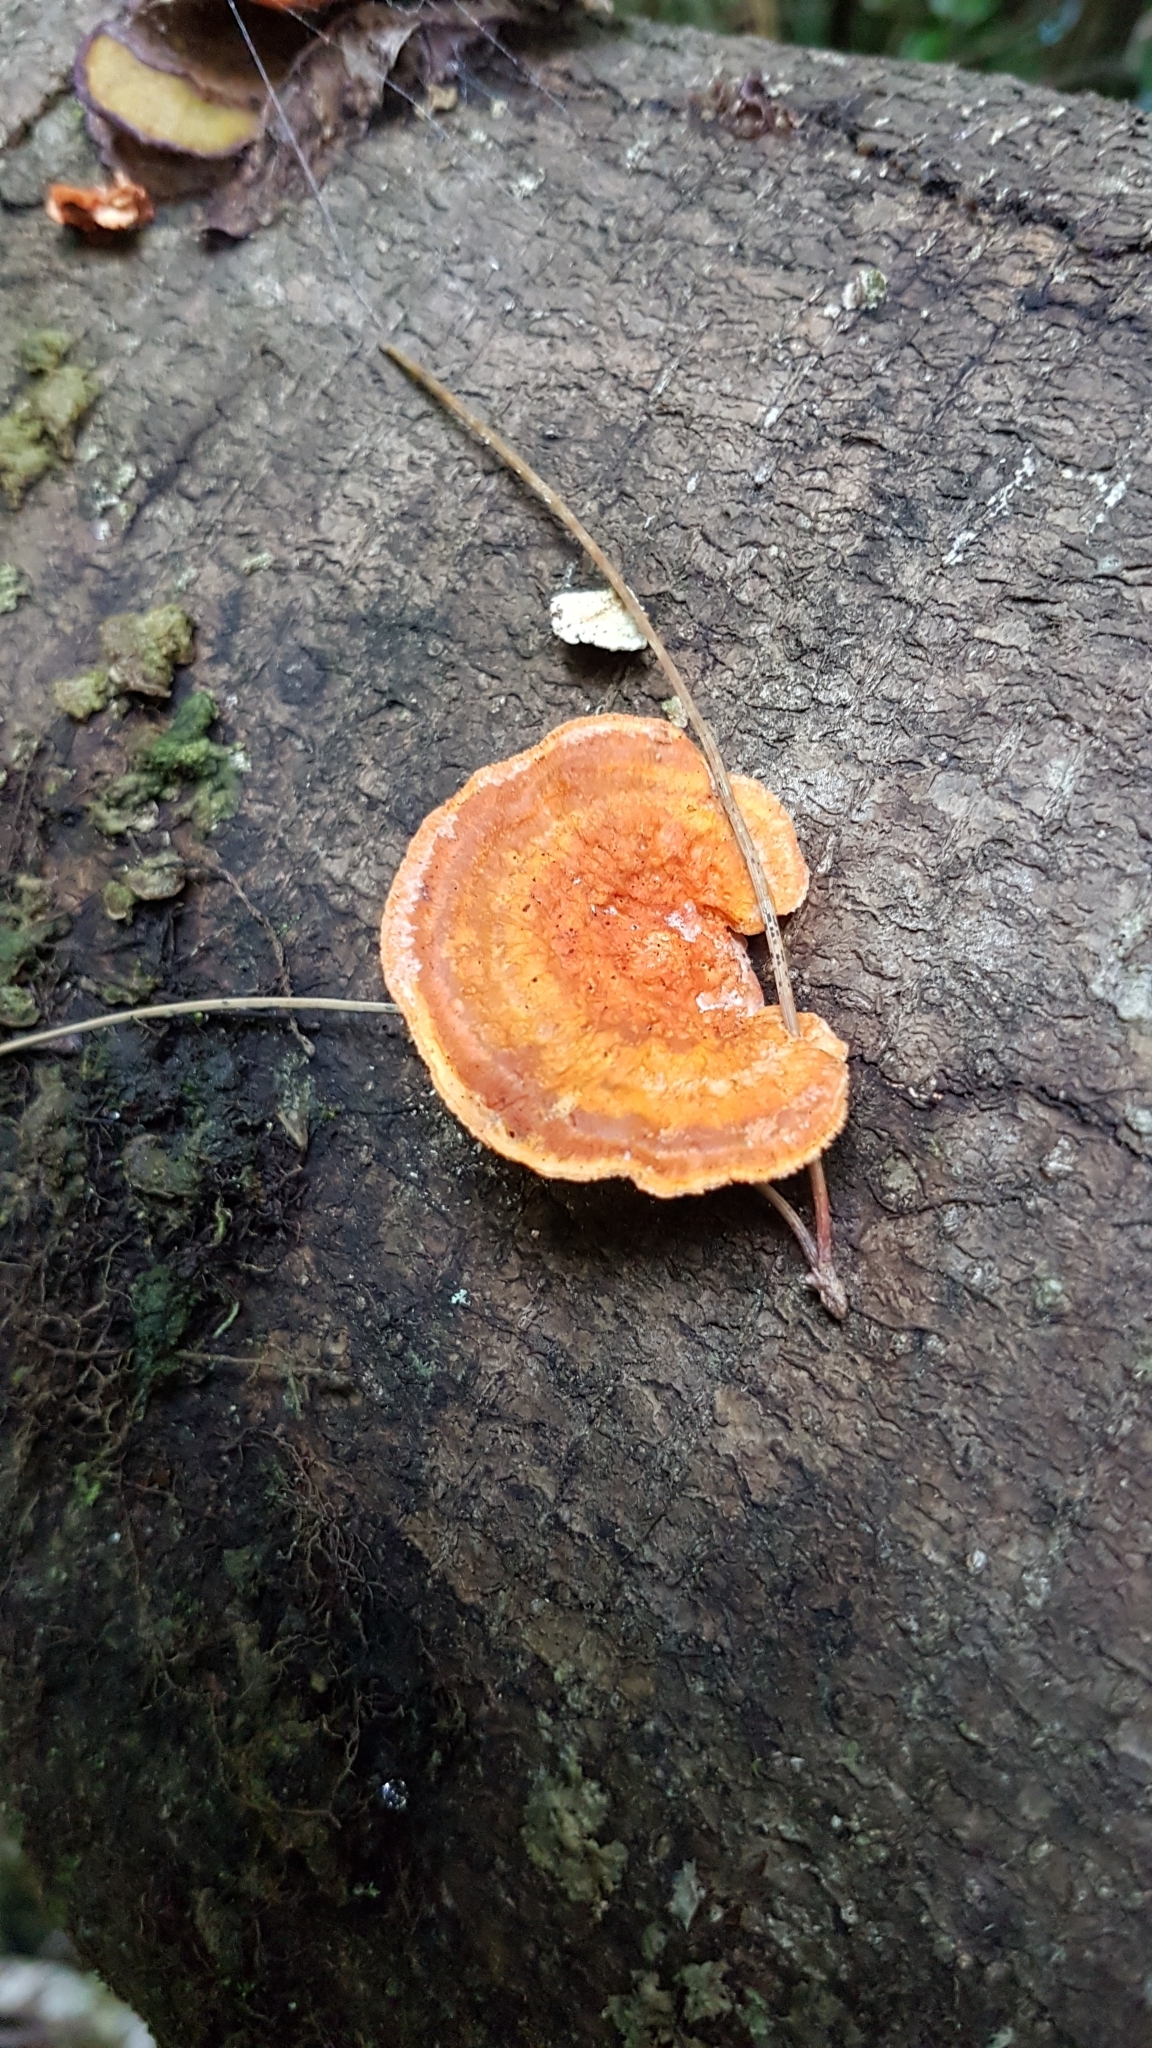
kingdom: Fungi
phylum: Basidiomycota
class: Agaricomycetes
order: Polyporales
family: Polyporaceae
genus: Trametes
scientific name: Trametes coccinea
